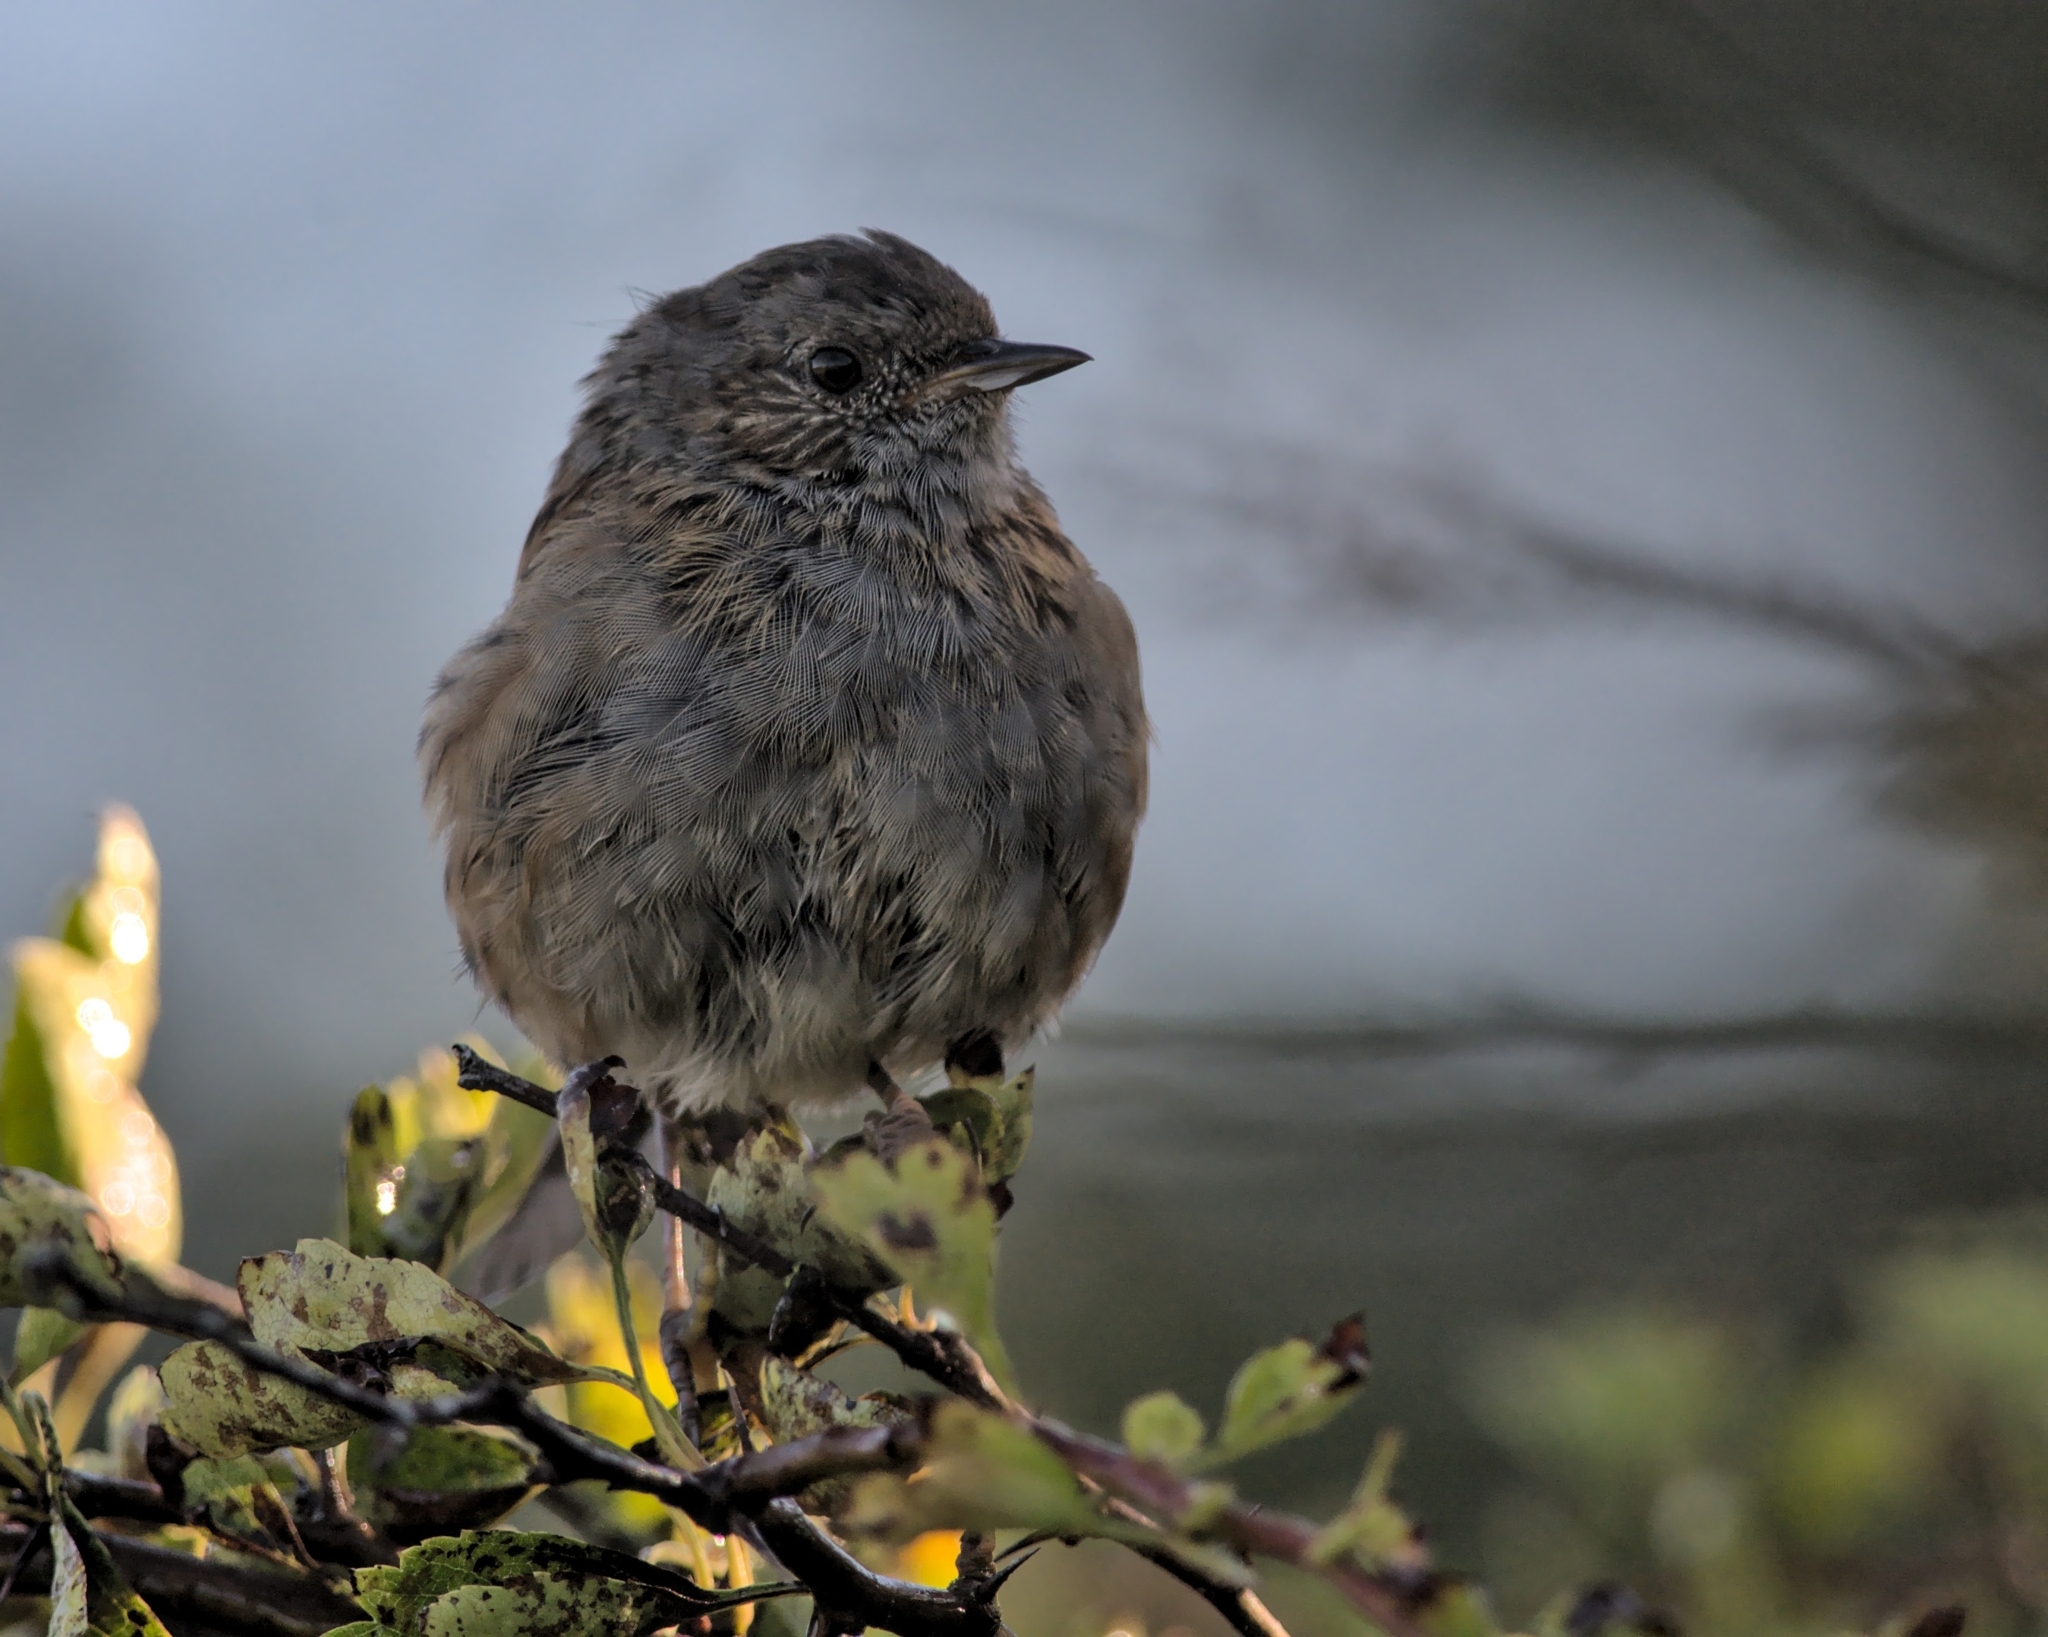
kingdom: Animalia
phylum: Chordata
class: Aves
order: Passeriformes
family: Prunellidae
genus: Prunella
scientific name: Prunella modularis
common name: Dunnock
